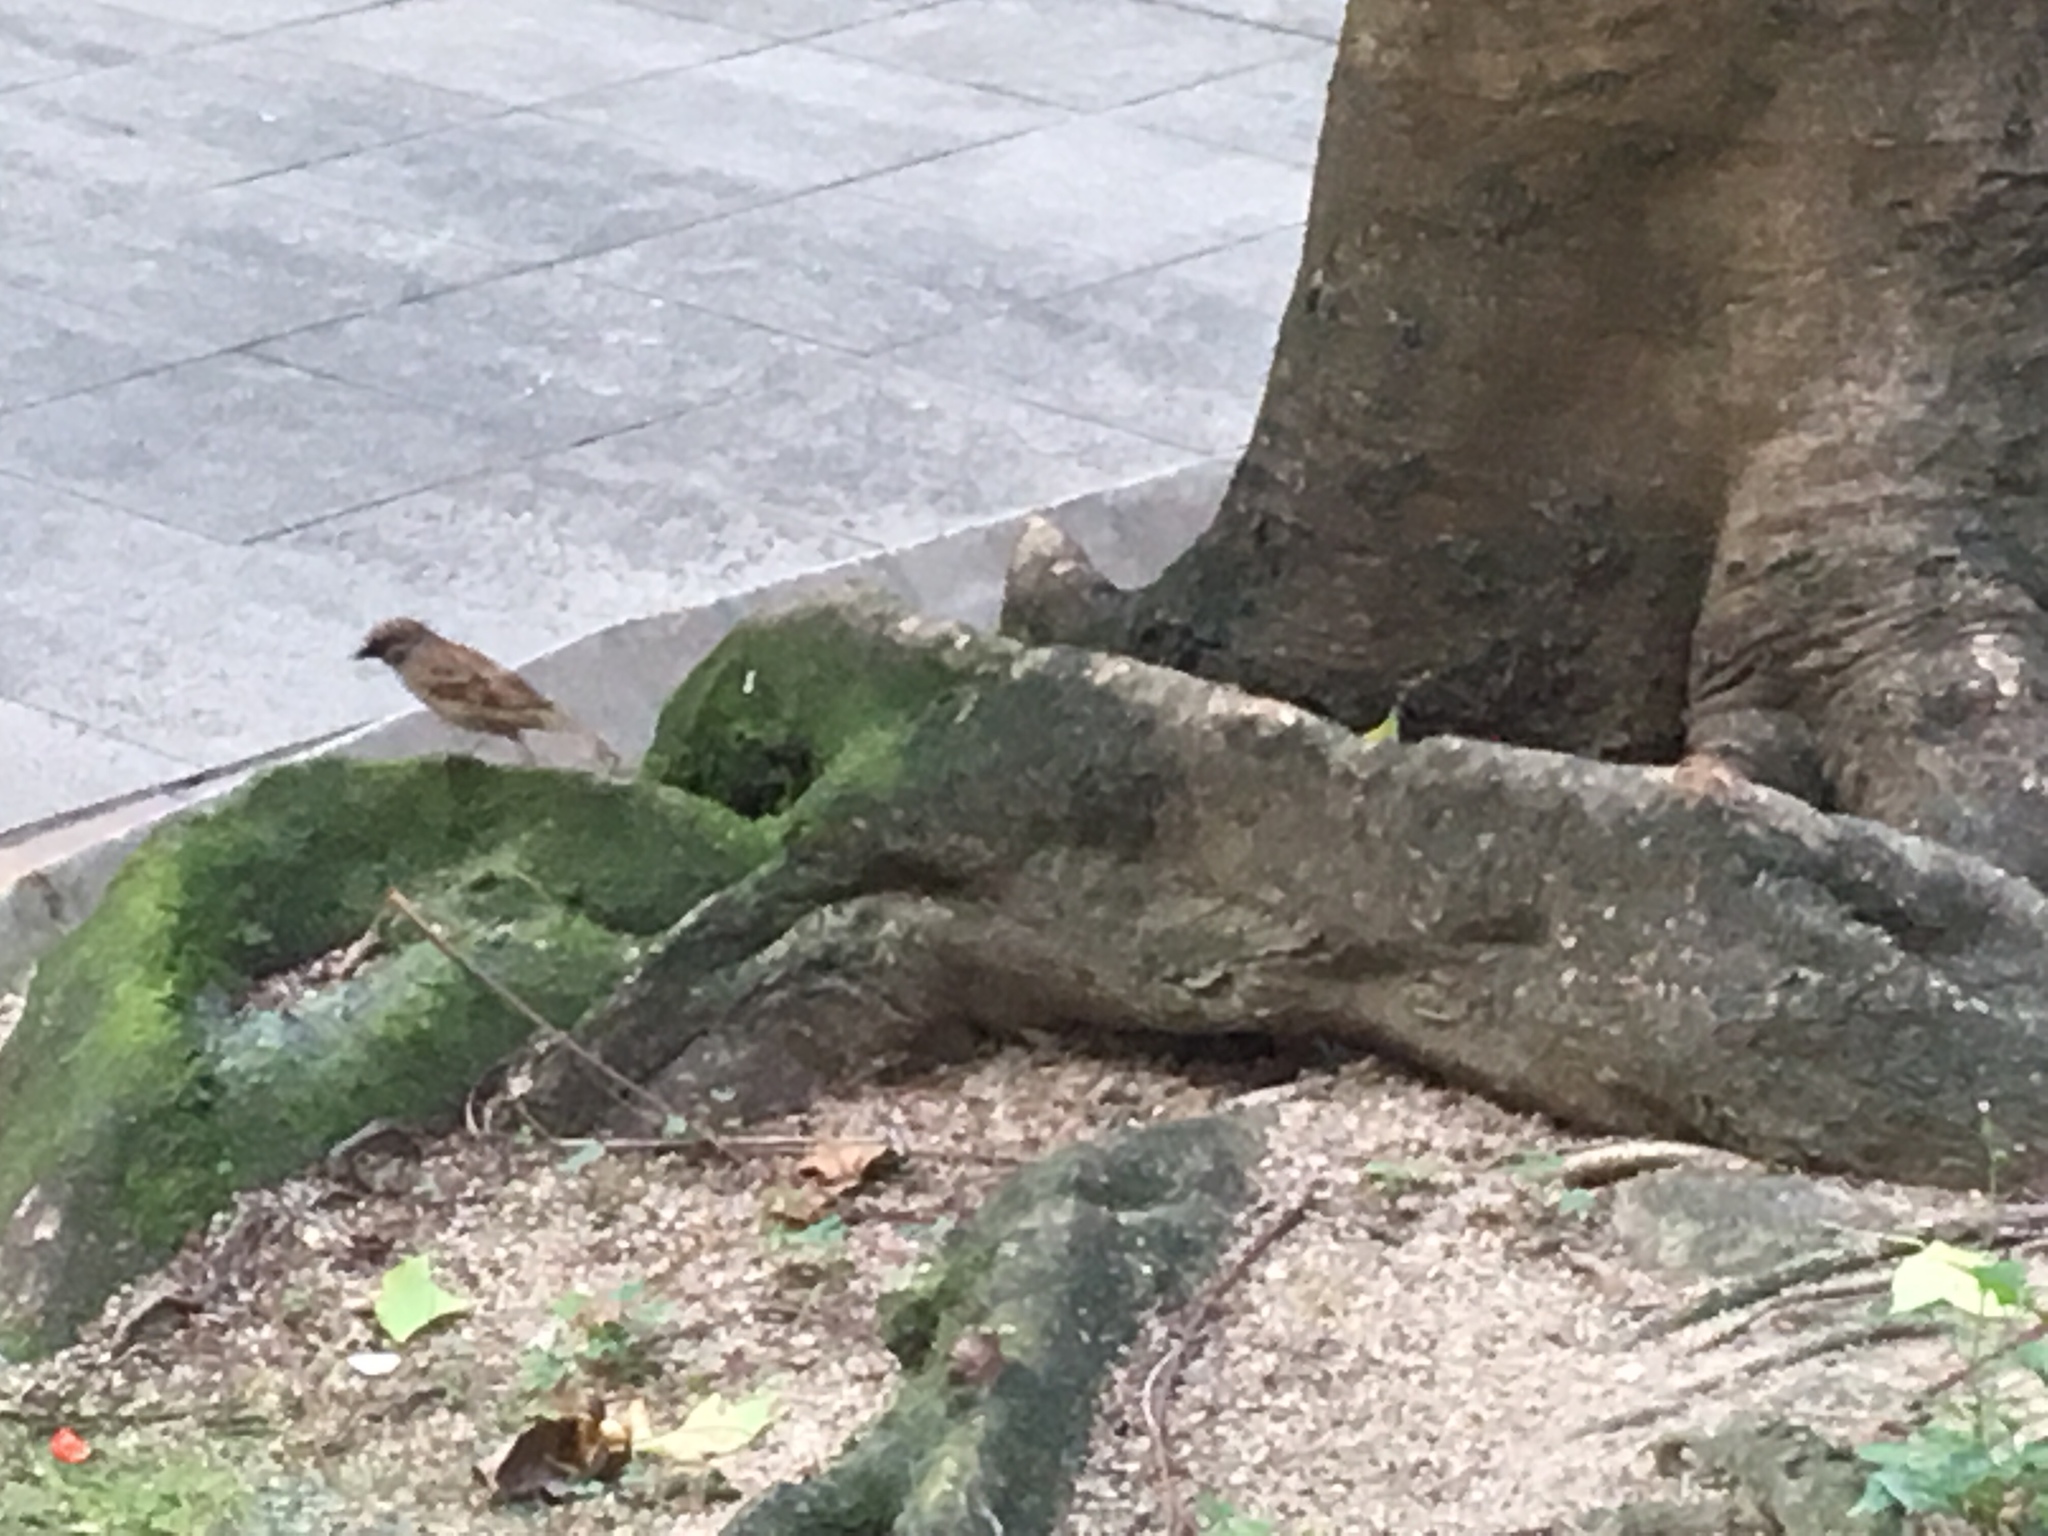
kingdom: Animalia
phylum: Chordata
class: Aves
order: Passeriformes
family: Passeridae
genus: Passer
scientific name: Passer montanus
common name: Eurasian tree sparrow
